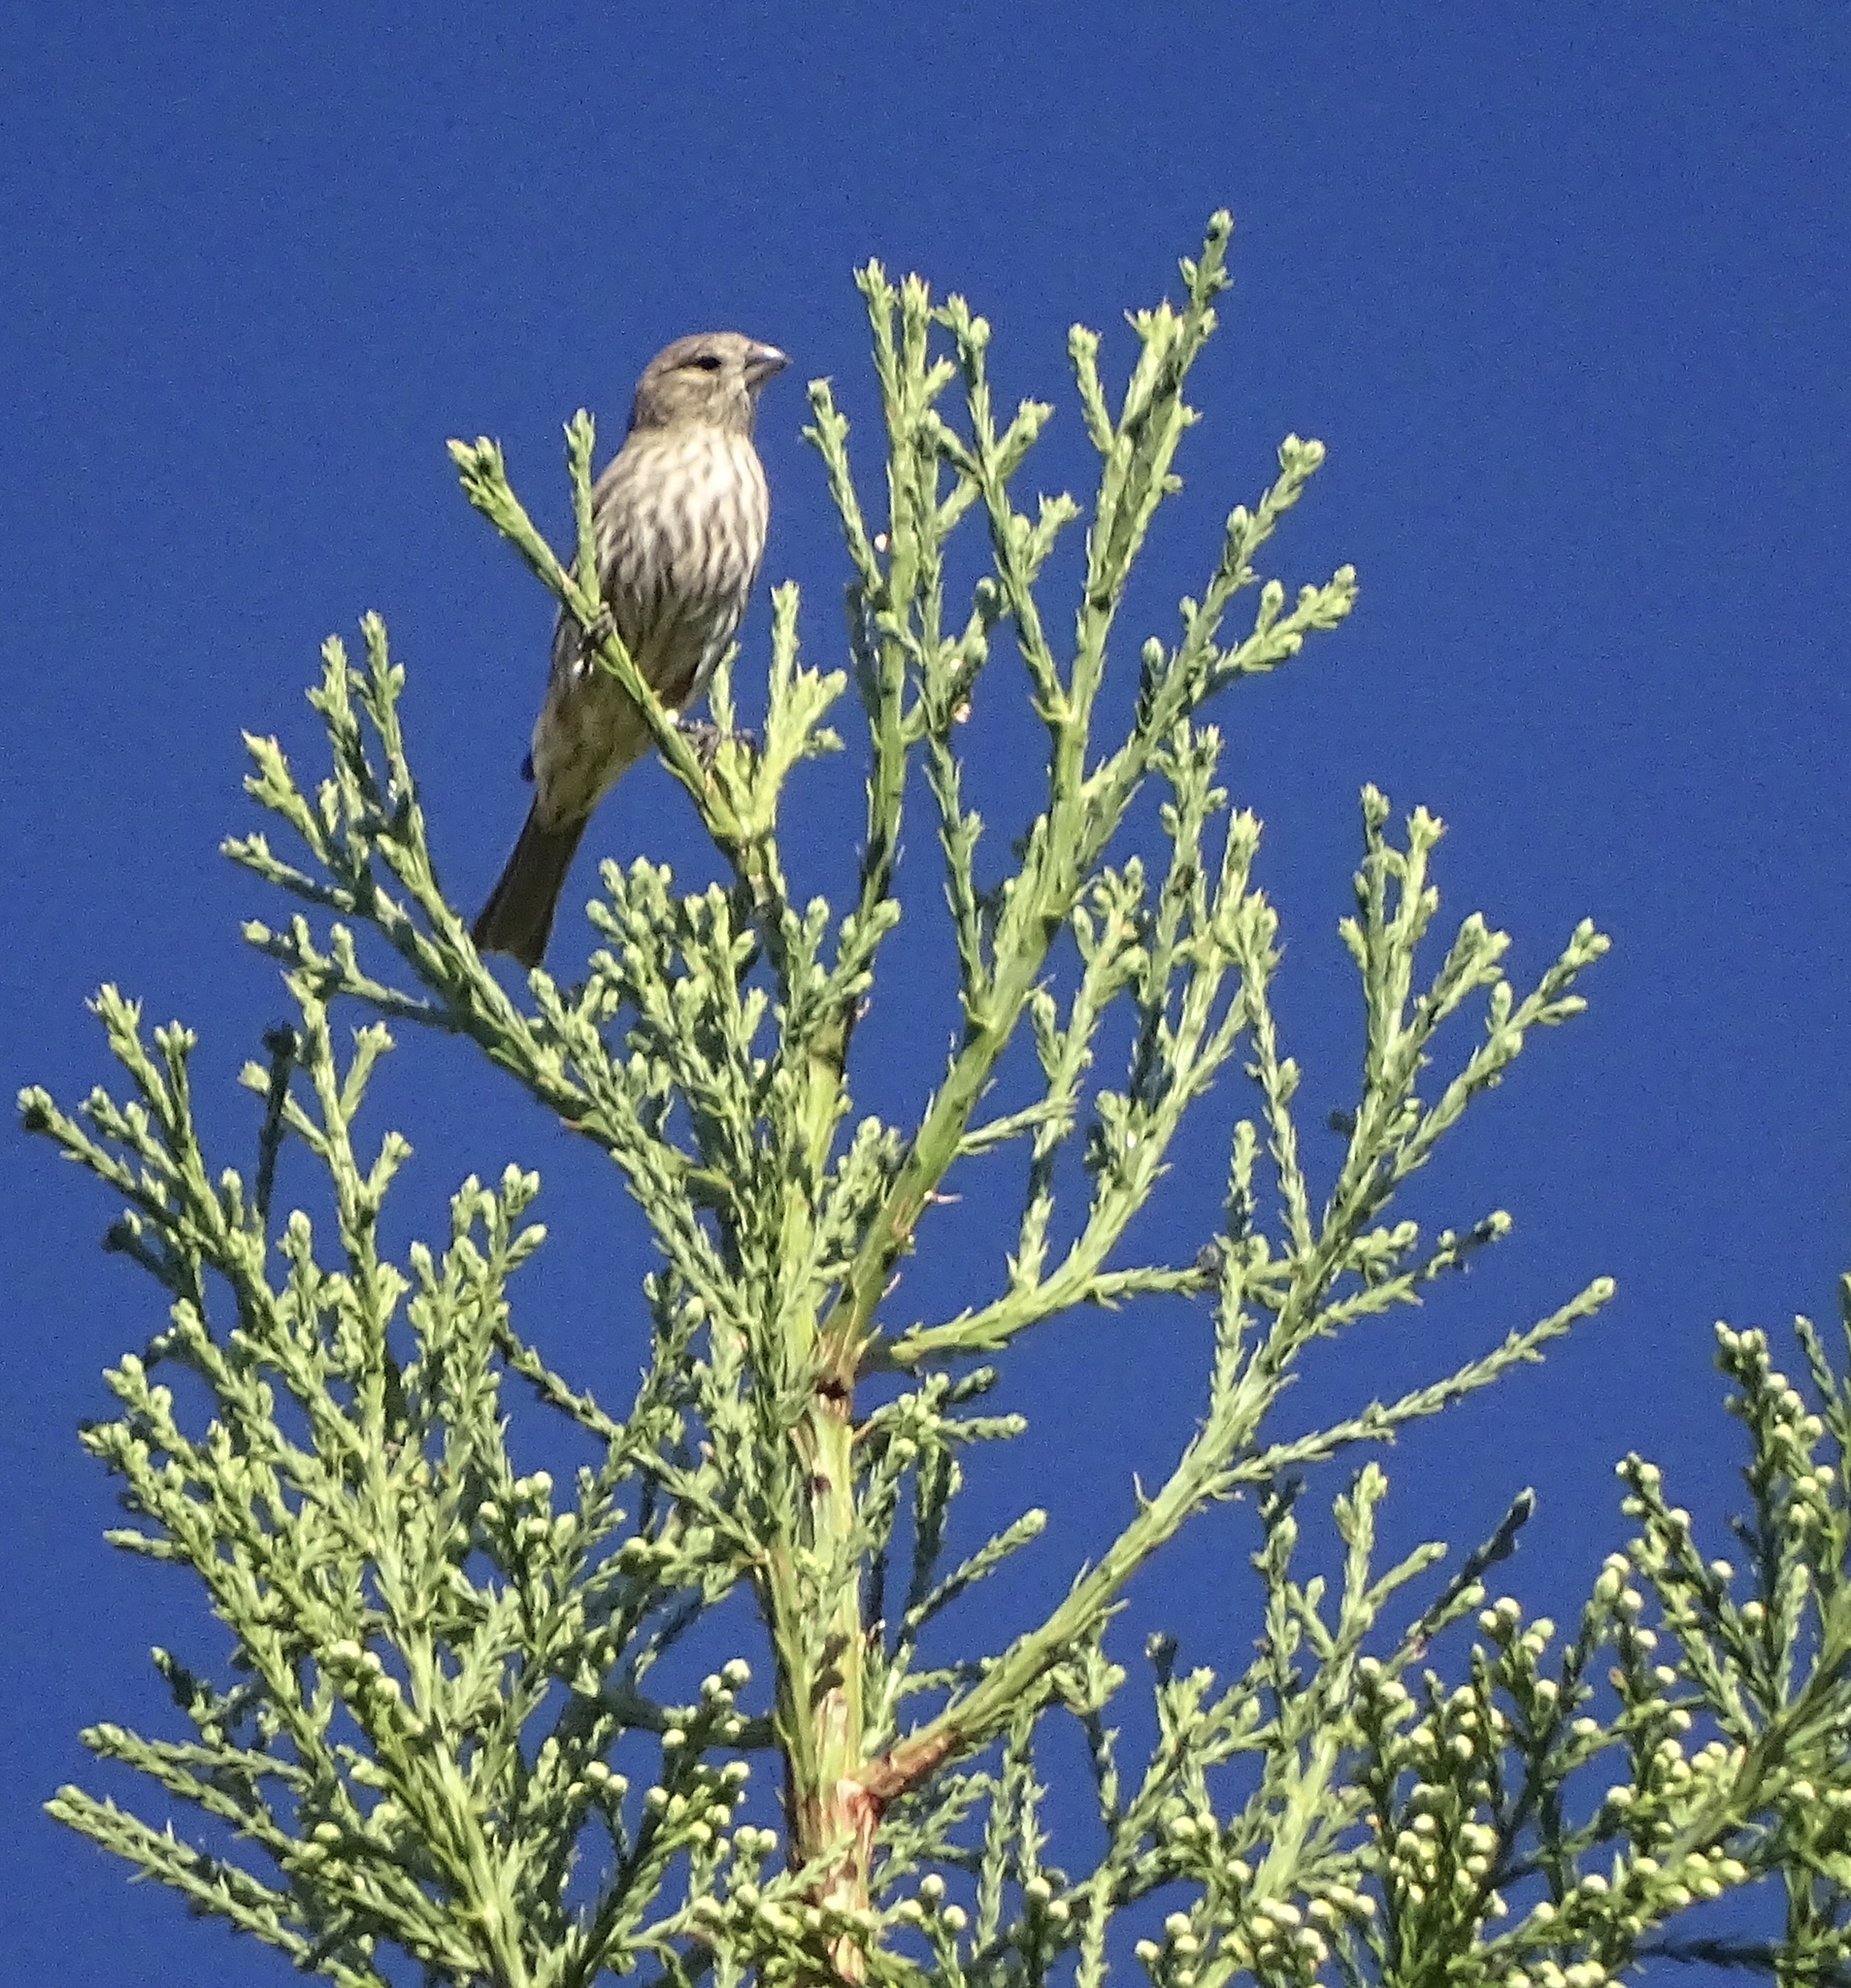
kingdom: Animalia
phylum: Chordata
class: Aves
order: Passeriformes
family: Fringillidae
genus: Haemorhous
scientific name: Haemorhous mexicanus
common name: House finch
